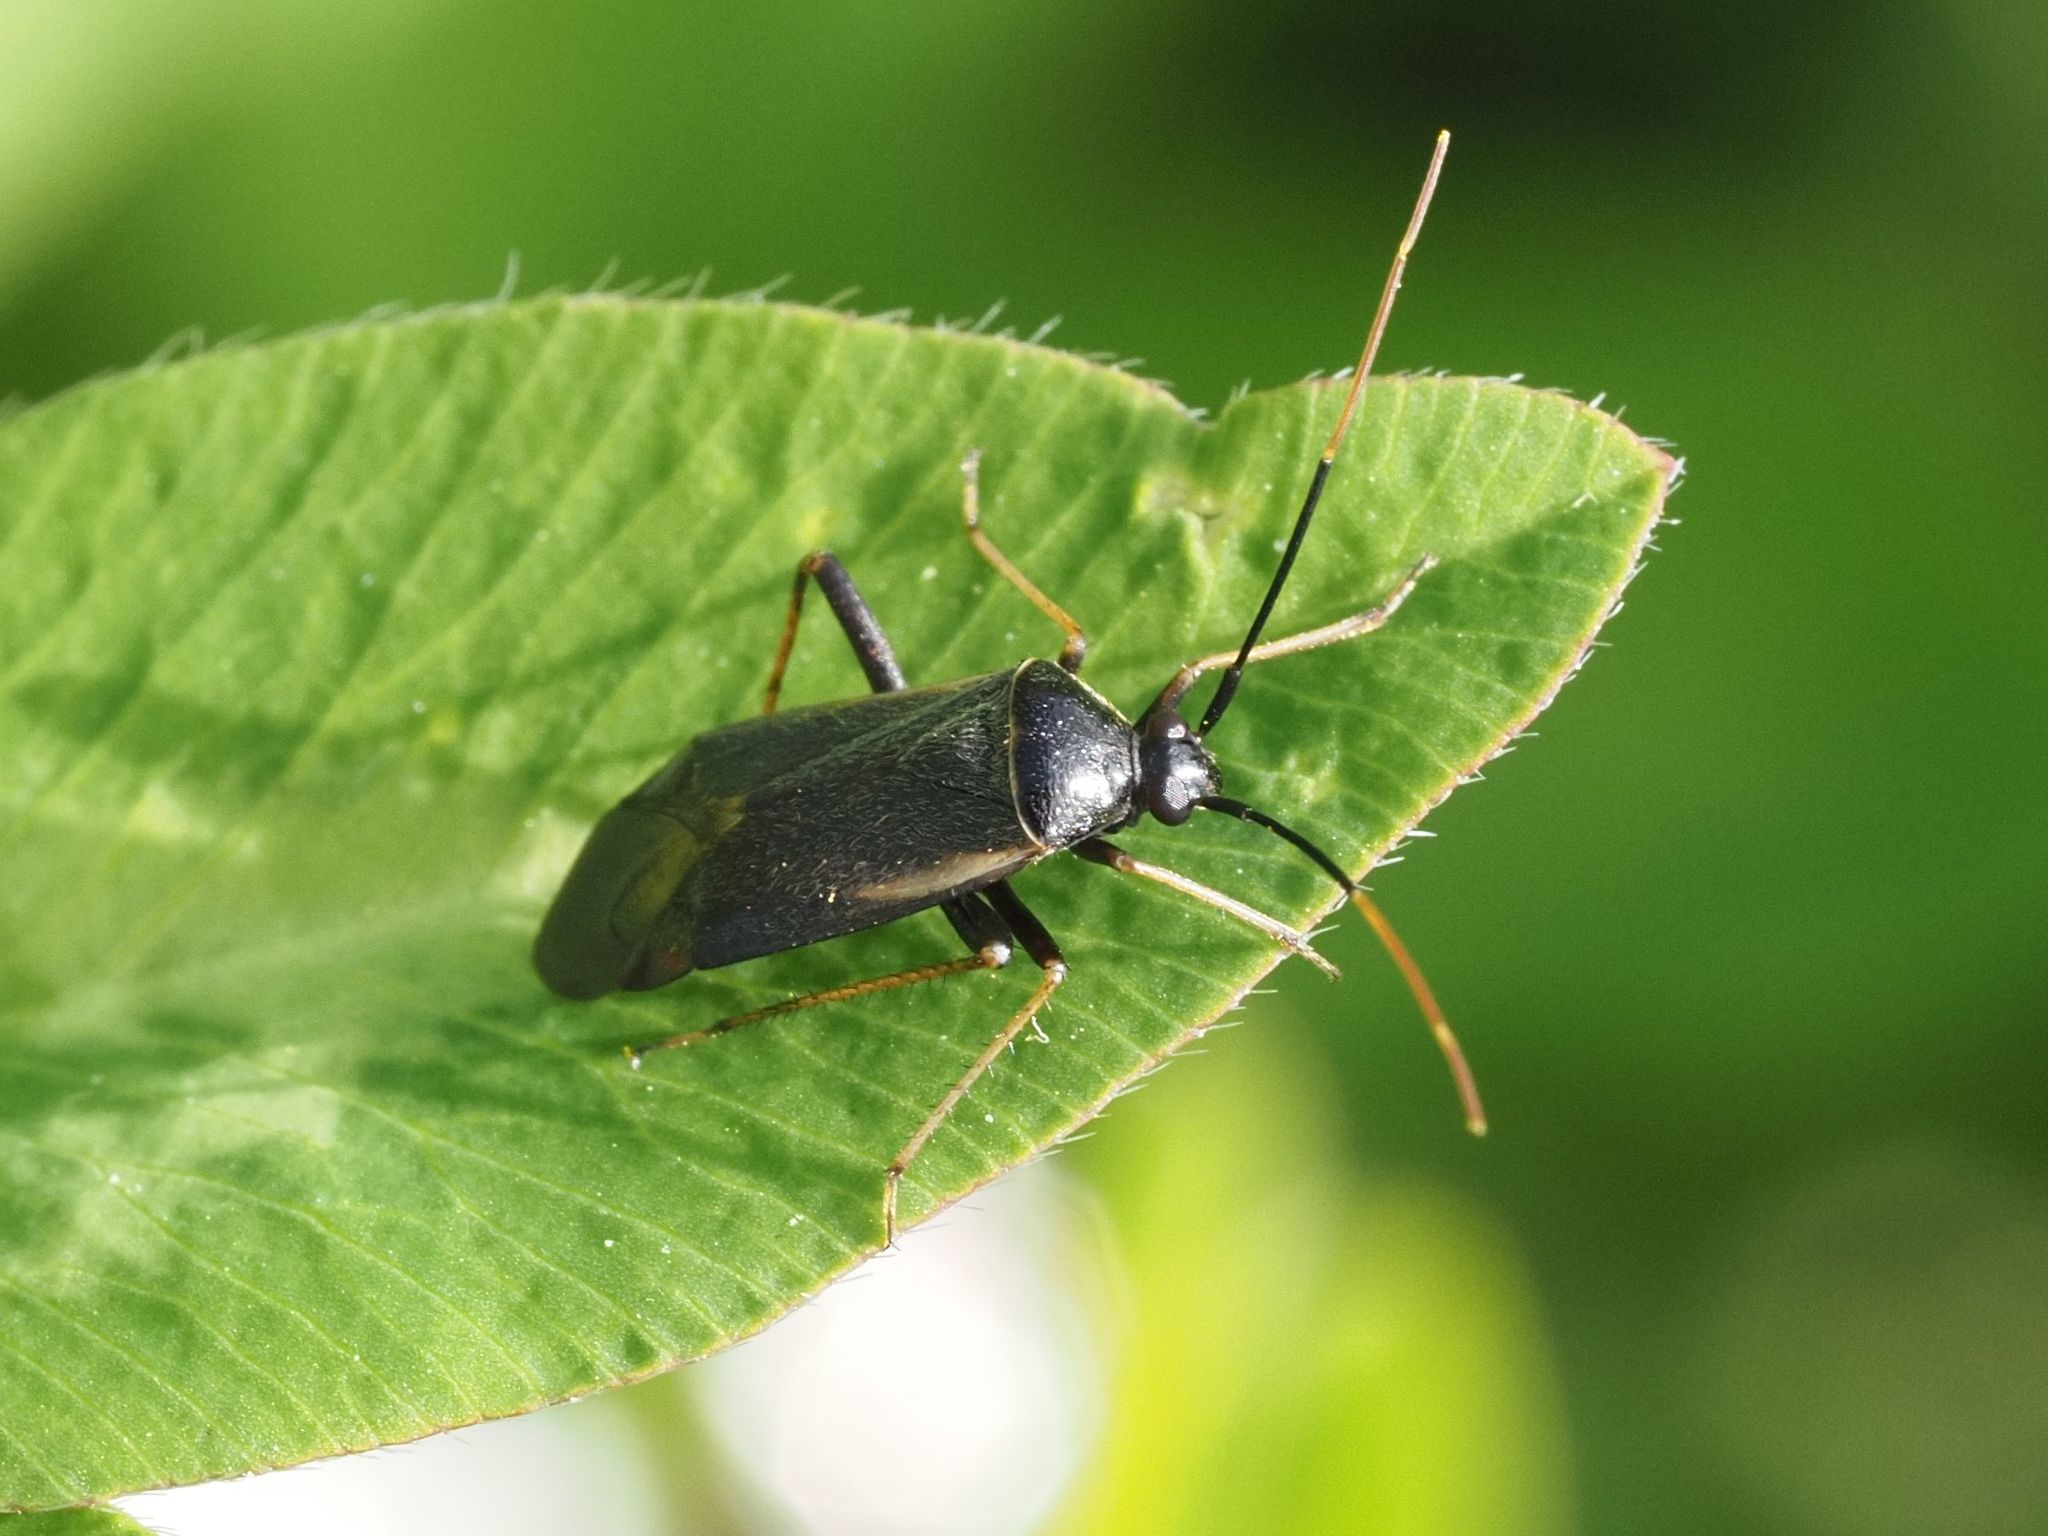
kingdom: Animalia
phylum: Arthropoda
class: Insecta
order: Hemiptera
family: Miridae
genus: Adelphocoris
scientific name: Adelphocoris seticornis
